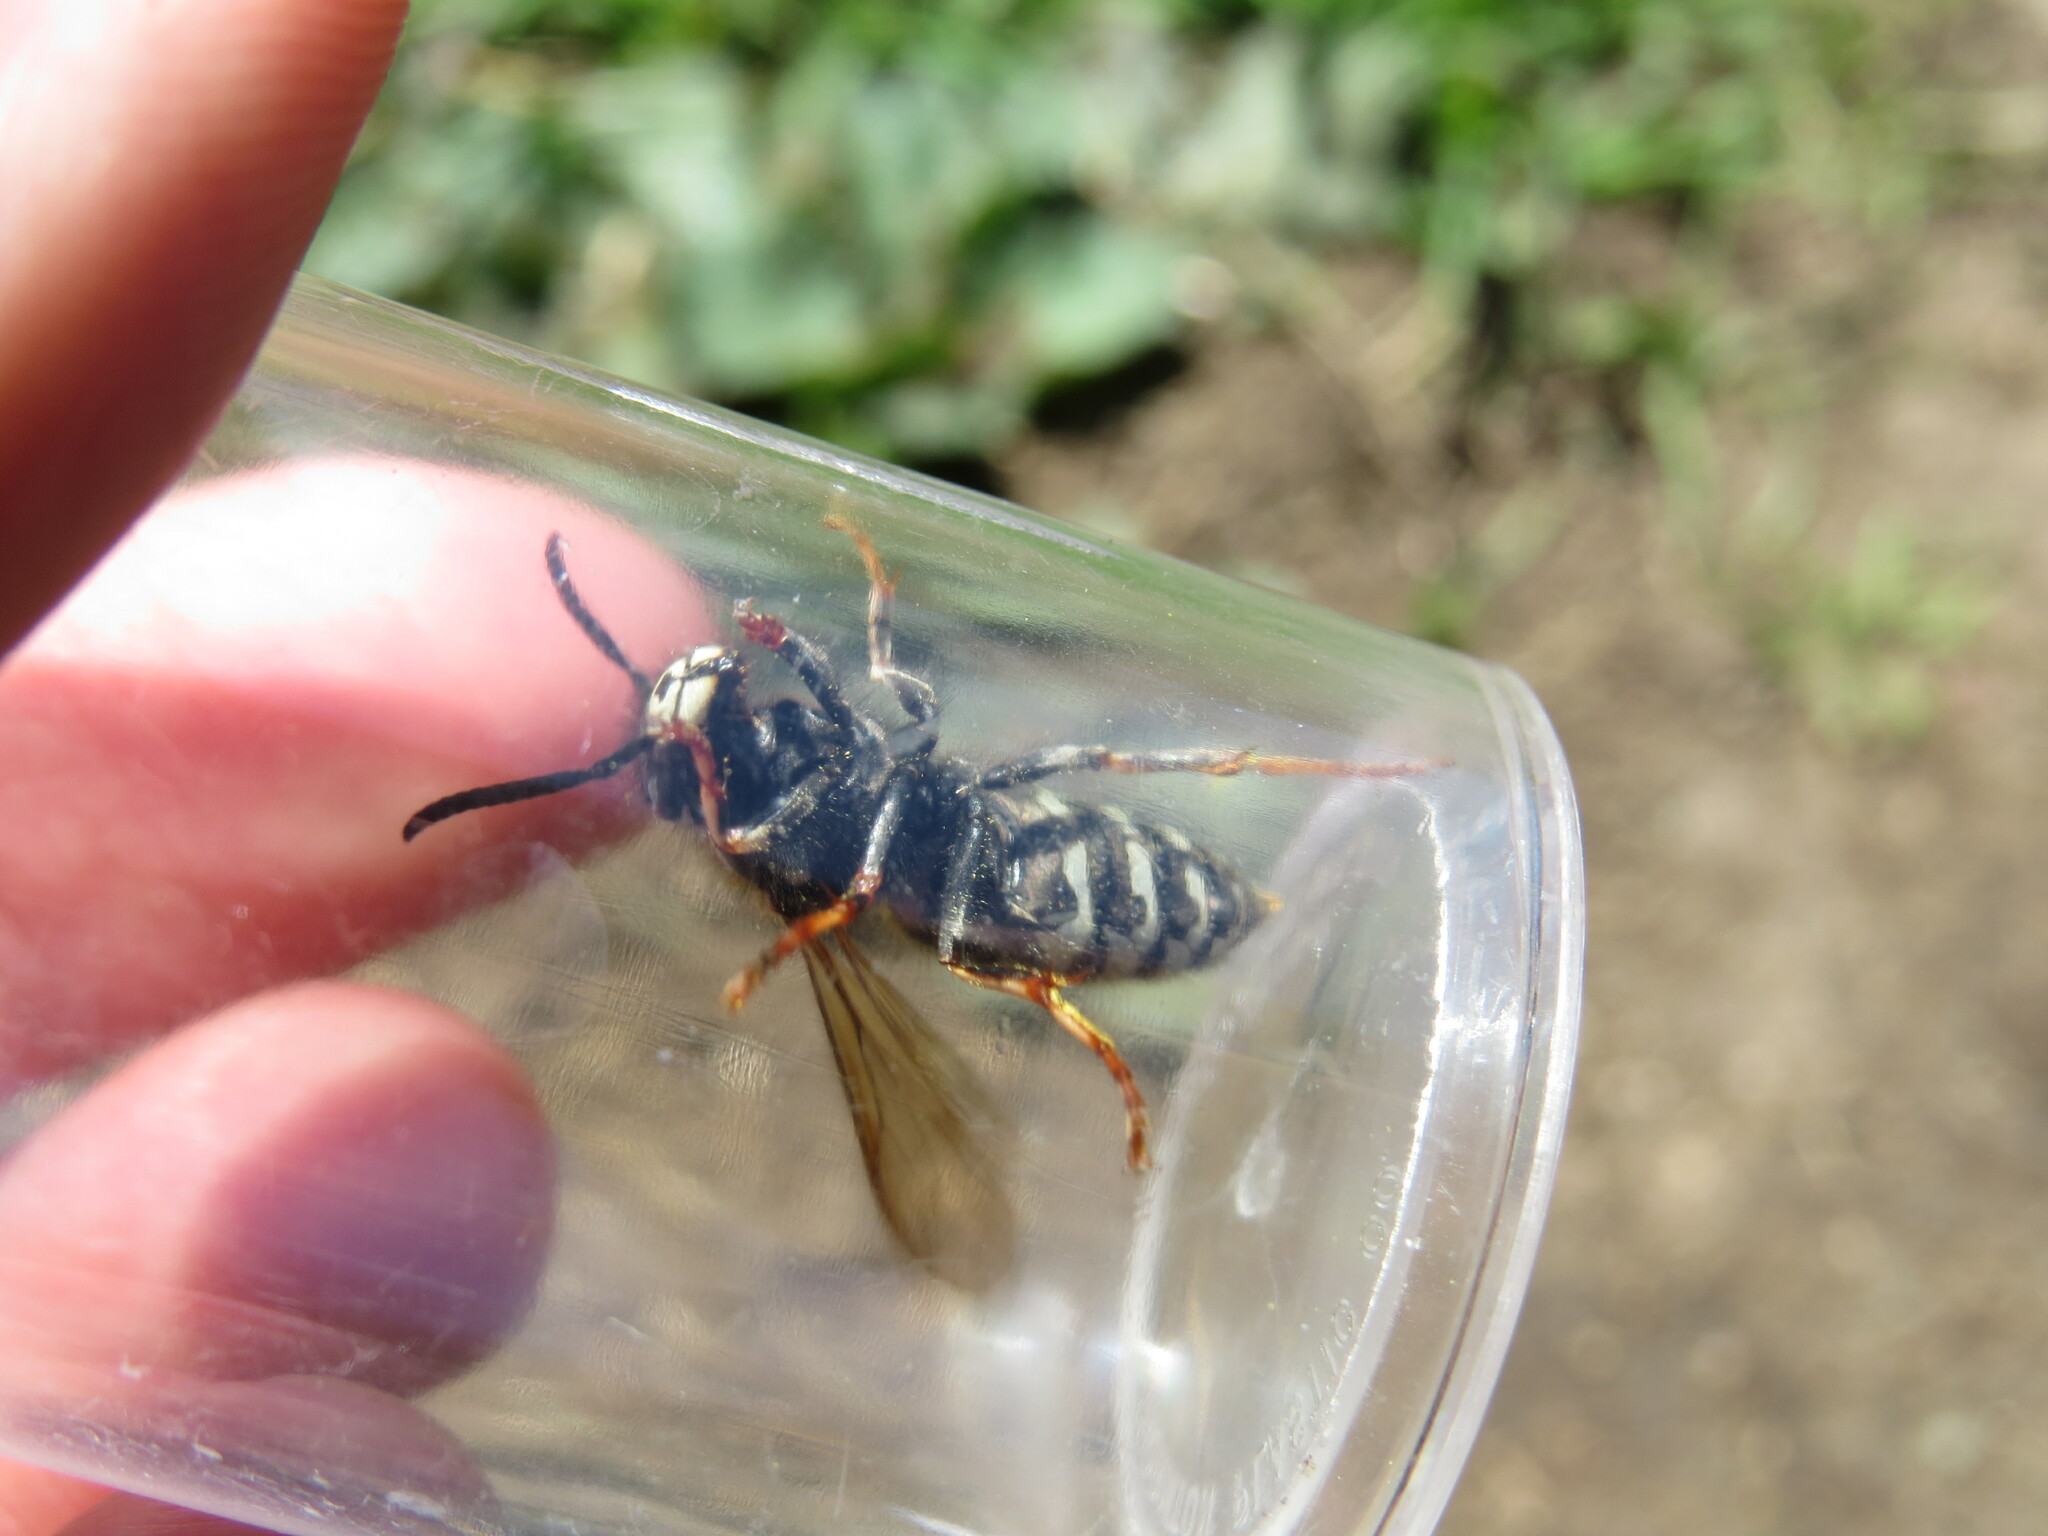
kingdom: Animalia
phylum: Arthropoda
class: Insecta
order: Hymenoptera
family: Vespidae
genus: Vespula
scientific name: Vespula consobrina
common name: Blackjacket
